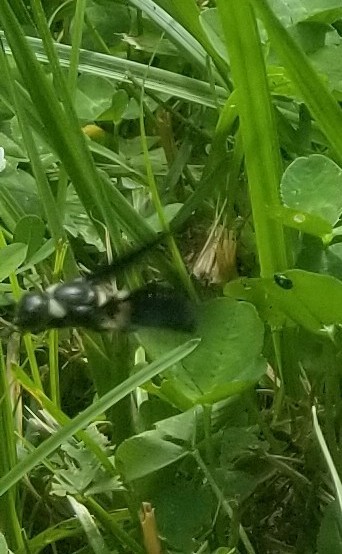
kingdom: Animalia
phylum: Arthropoda
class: Insecta
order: Hymenoptera
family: Eumenidae
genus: Monobia
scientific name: Monobia quadridens
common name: Four-toothed mason wasp
